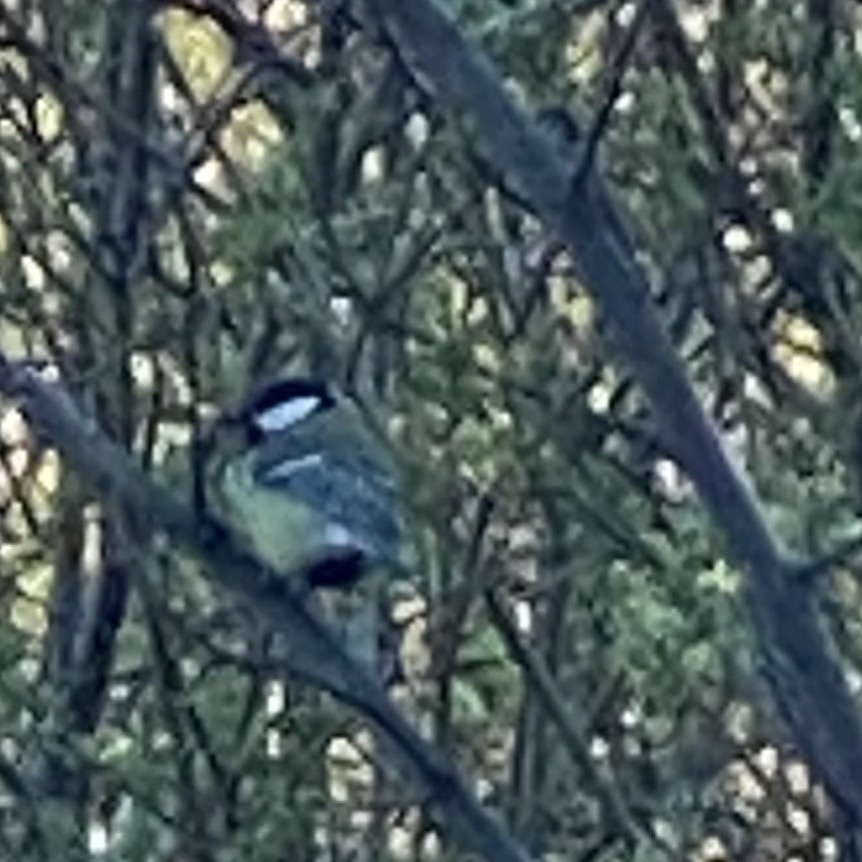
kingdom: Animalia
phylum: Chordata
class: Aves
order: Passeriformes
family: Paridae
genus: Parus
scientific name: Parus major
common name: Great tit
